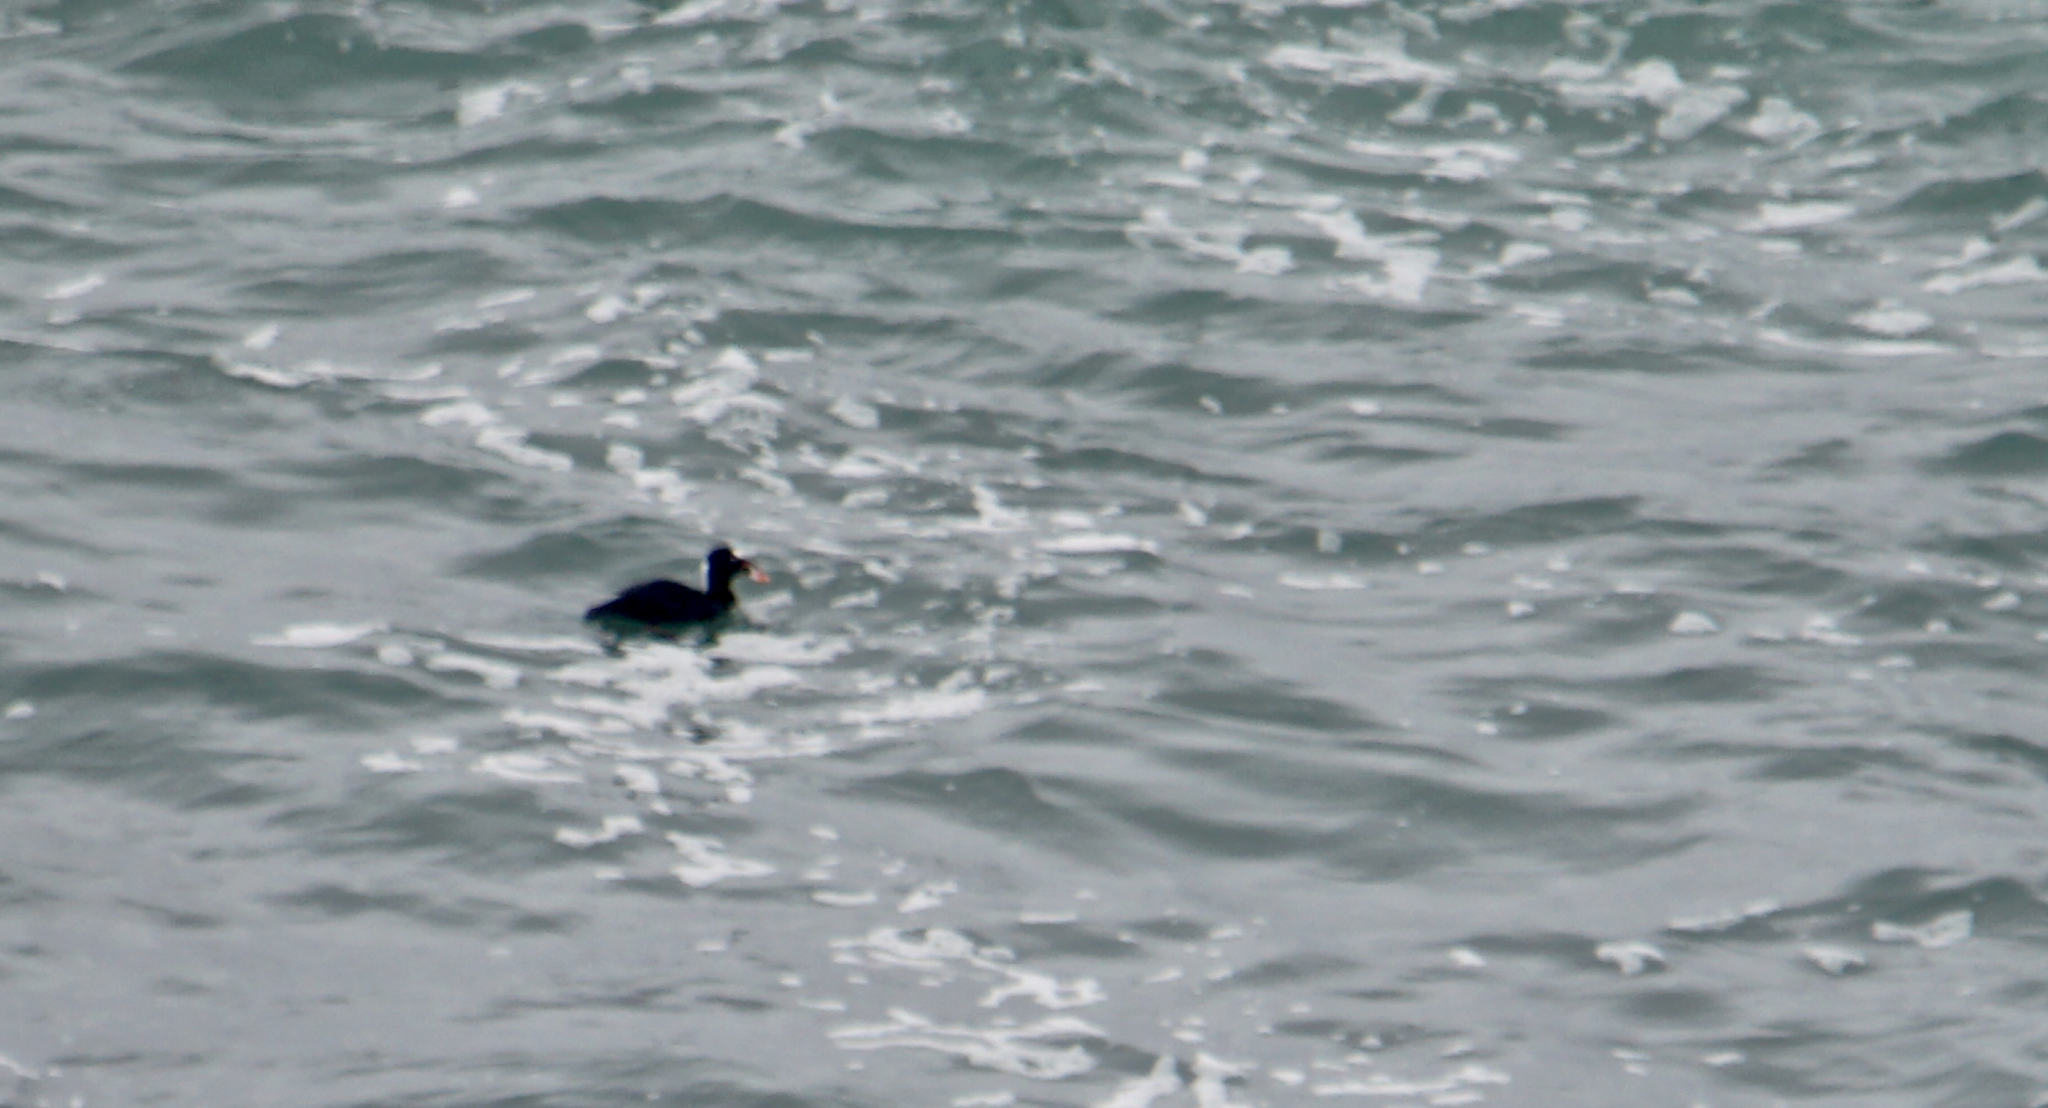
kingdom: Animalia
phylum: Chordata
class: Aves
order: Anseriformes
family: Anatidae
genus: Melanitta
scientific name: Melanitta perspicillata
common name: Surf scoter
